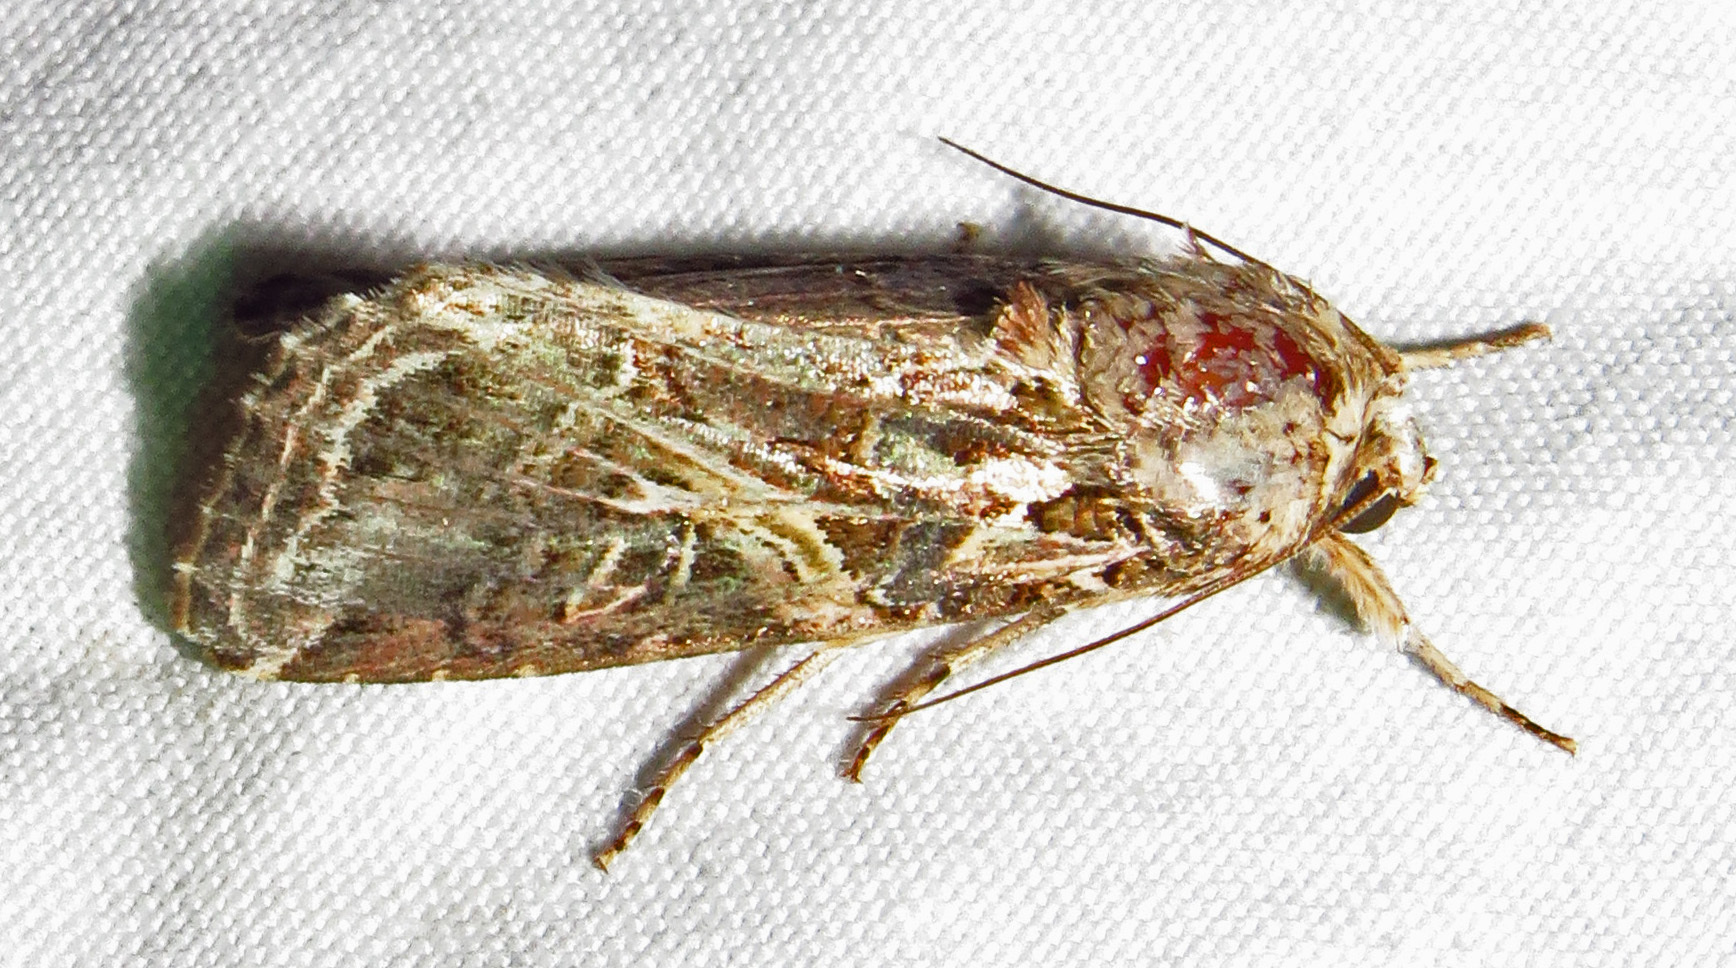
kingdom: Animalia
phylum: Arthropoda
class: Insecta
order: Lepidoptera
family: Noctuidae
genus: Spodoptera
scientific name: Spodoptera ornithogalli
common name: Yellow-striped armyworm
